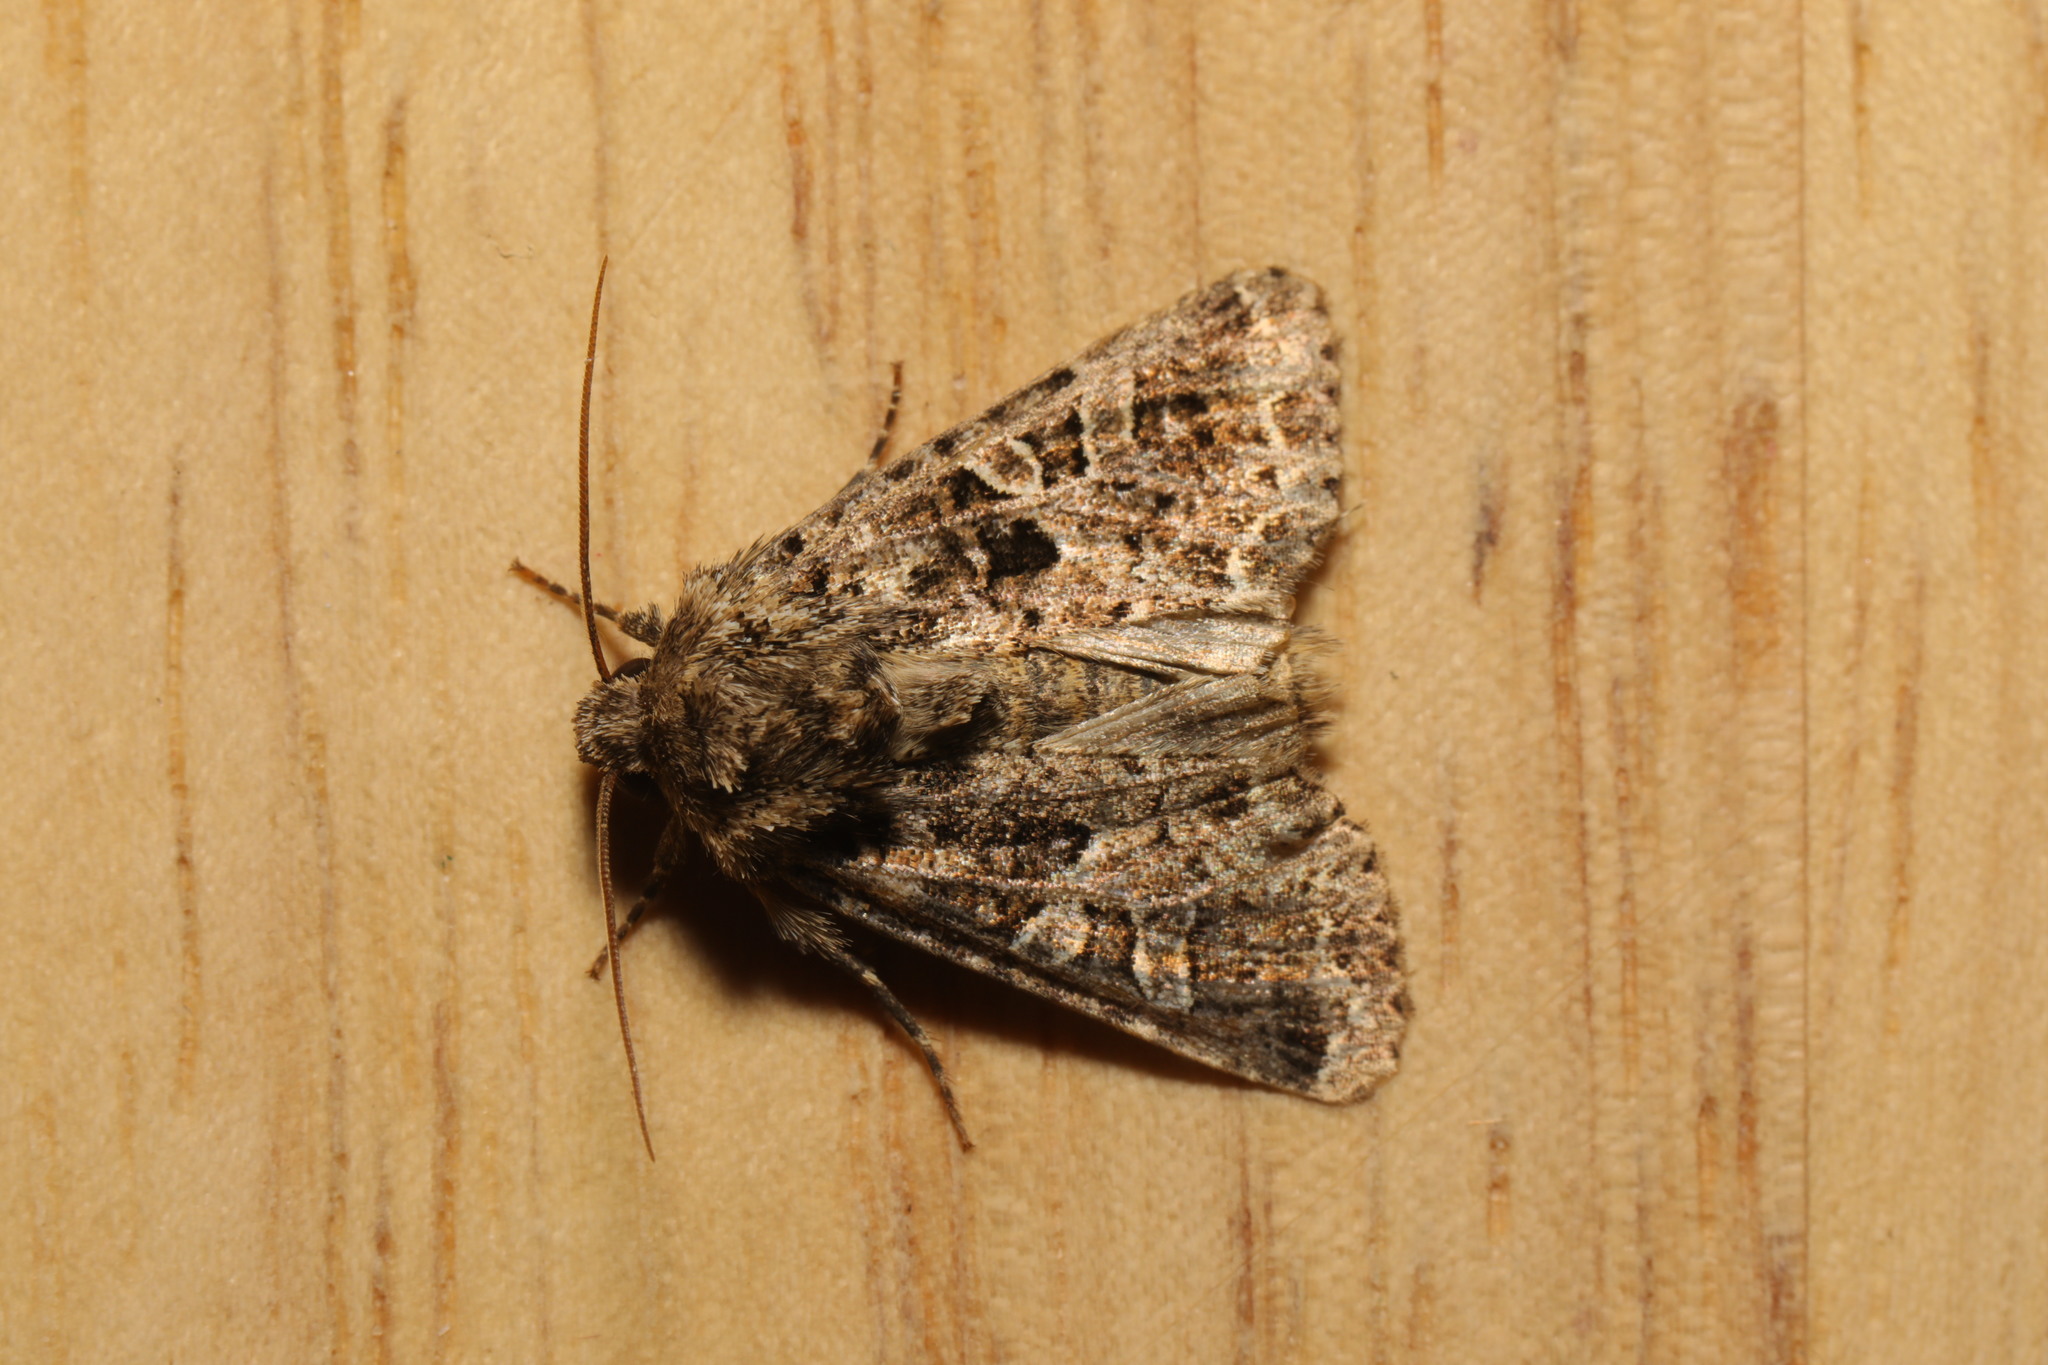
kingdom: Animalia
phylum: Arthropoda
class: Insecta
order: Lepidoptera
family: Noctuidae
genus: Hadena
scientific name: Hadena bicruris
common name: Lychnis
